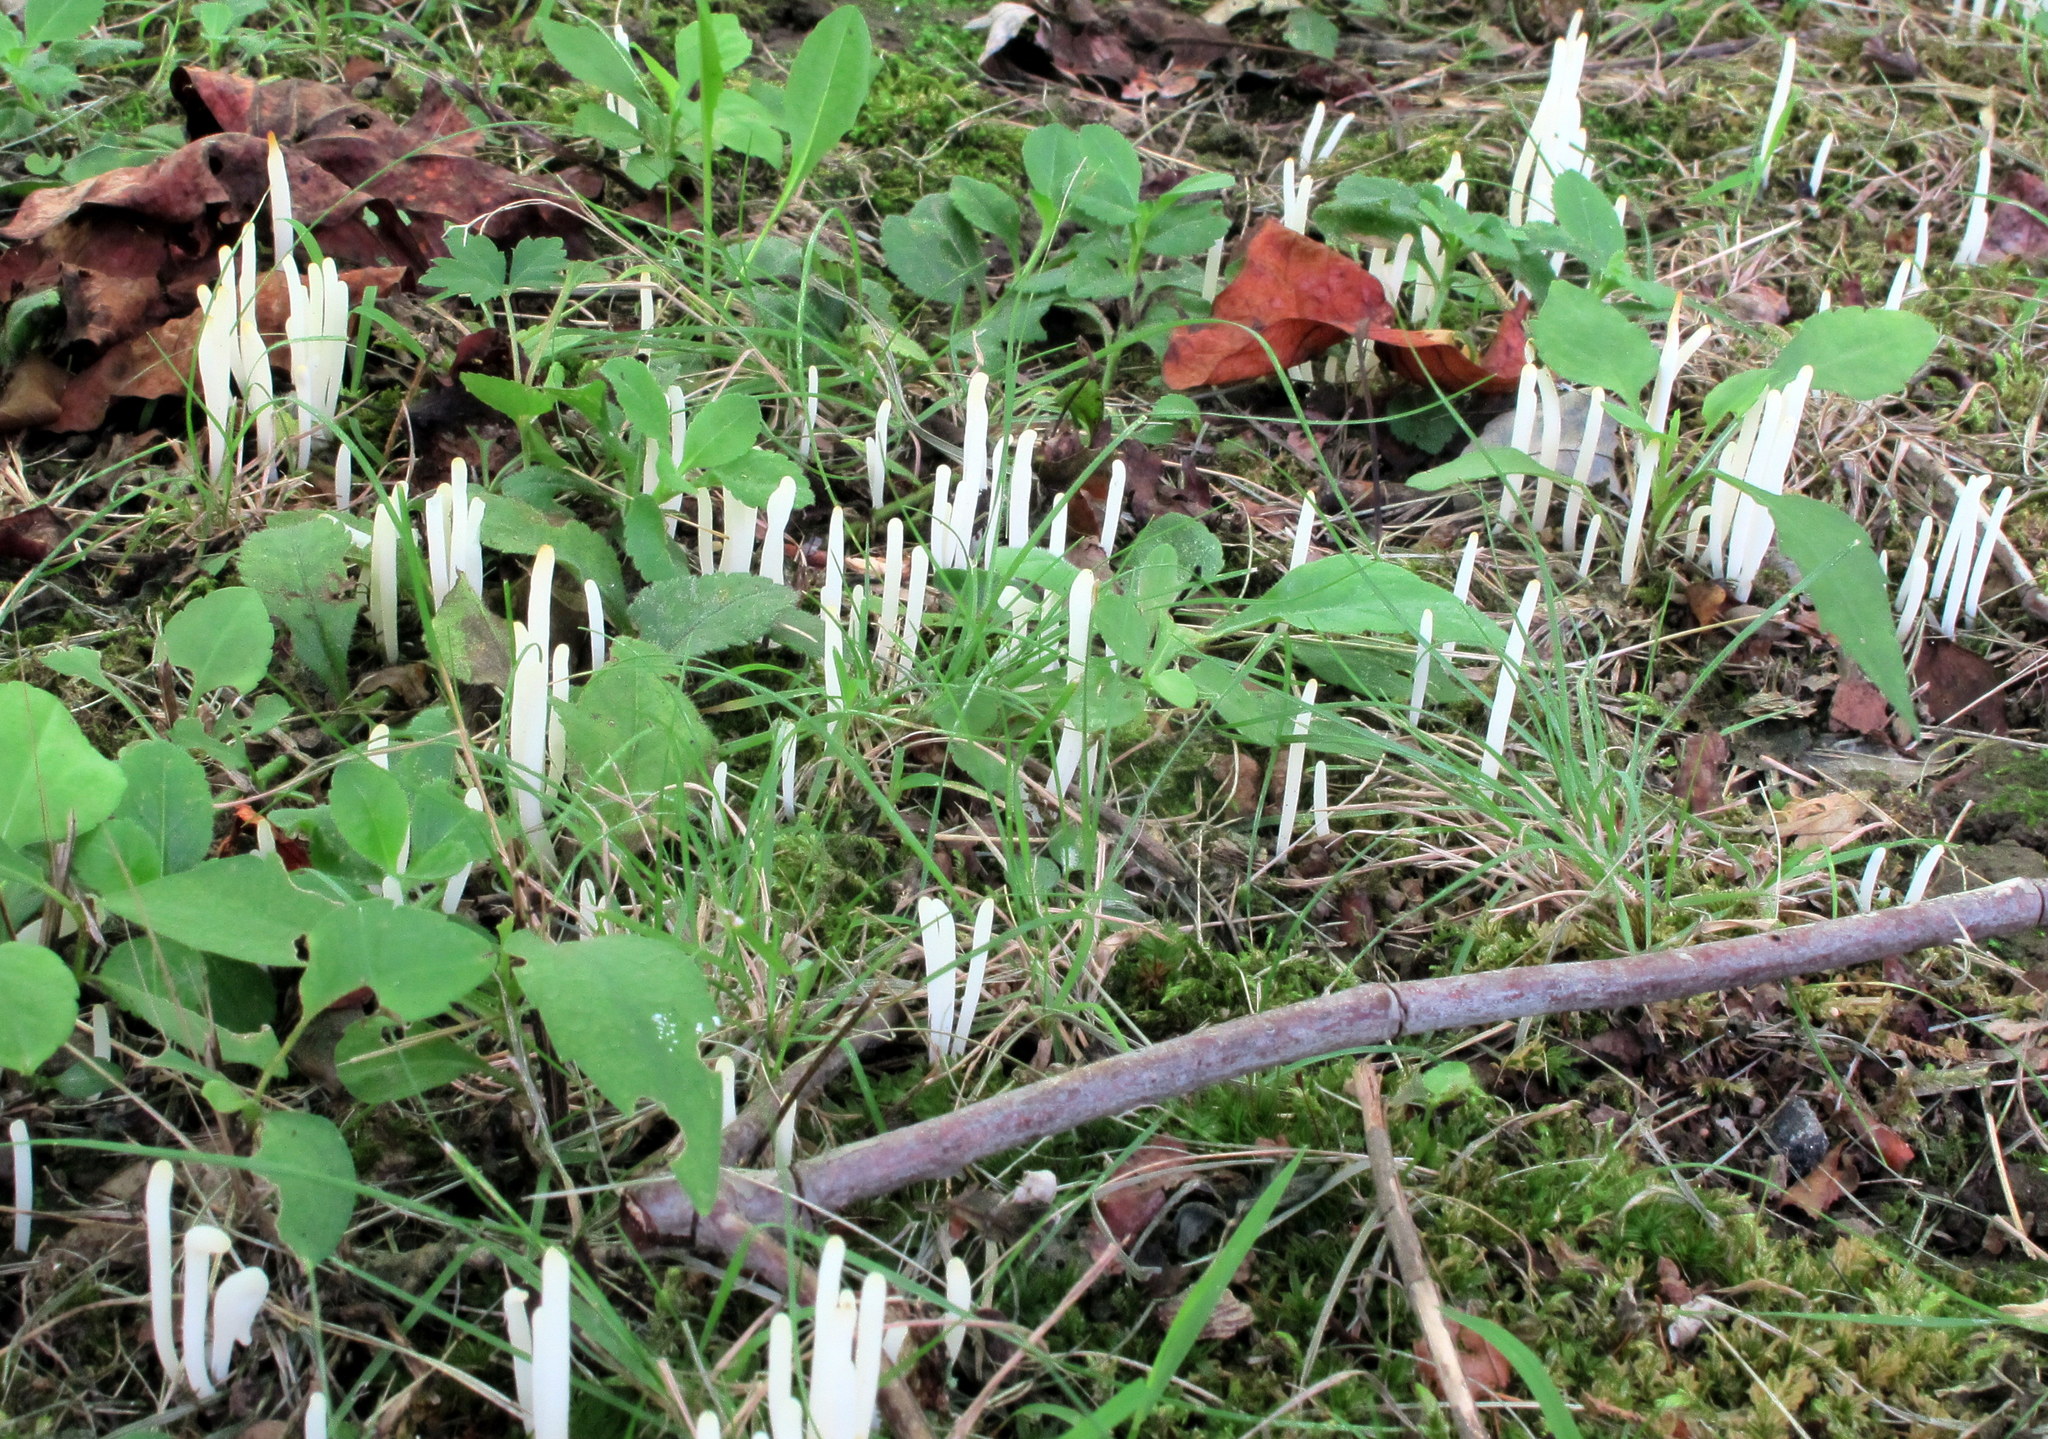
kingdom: Fungi
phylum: Basidiomycota
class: Agaricomycetes
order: Agaricales
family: Clavariaceae
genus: Clavaria
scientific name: Clavaria fragilis
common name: White spindles
